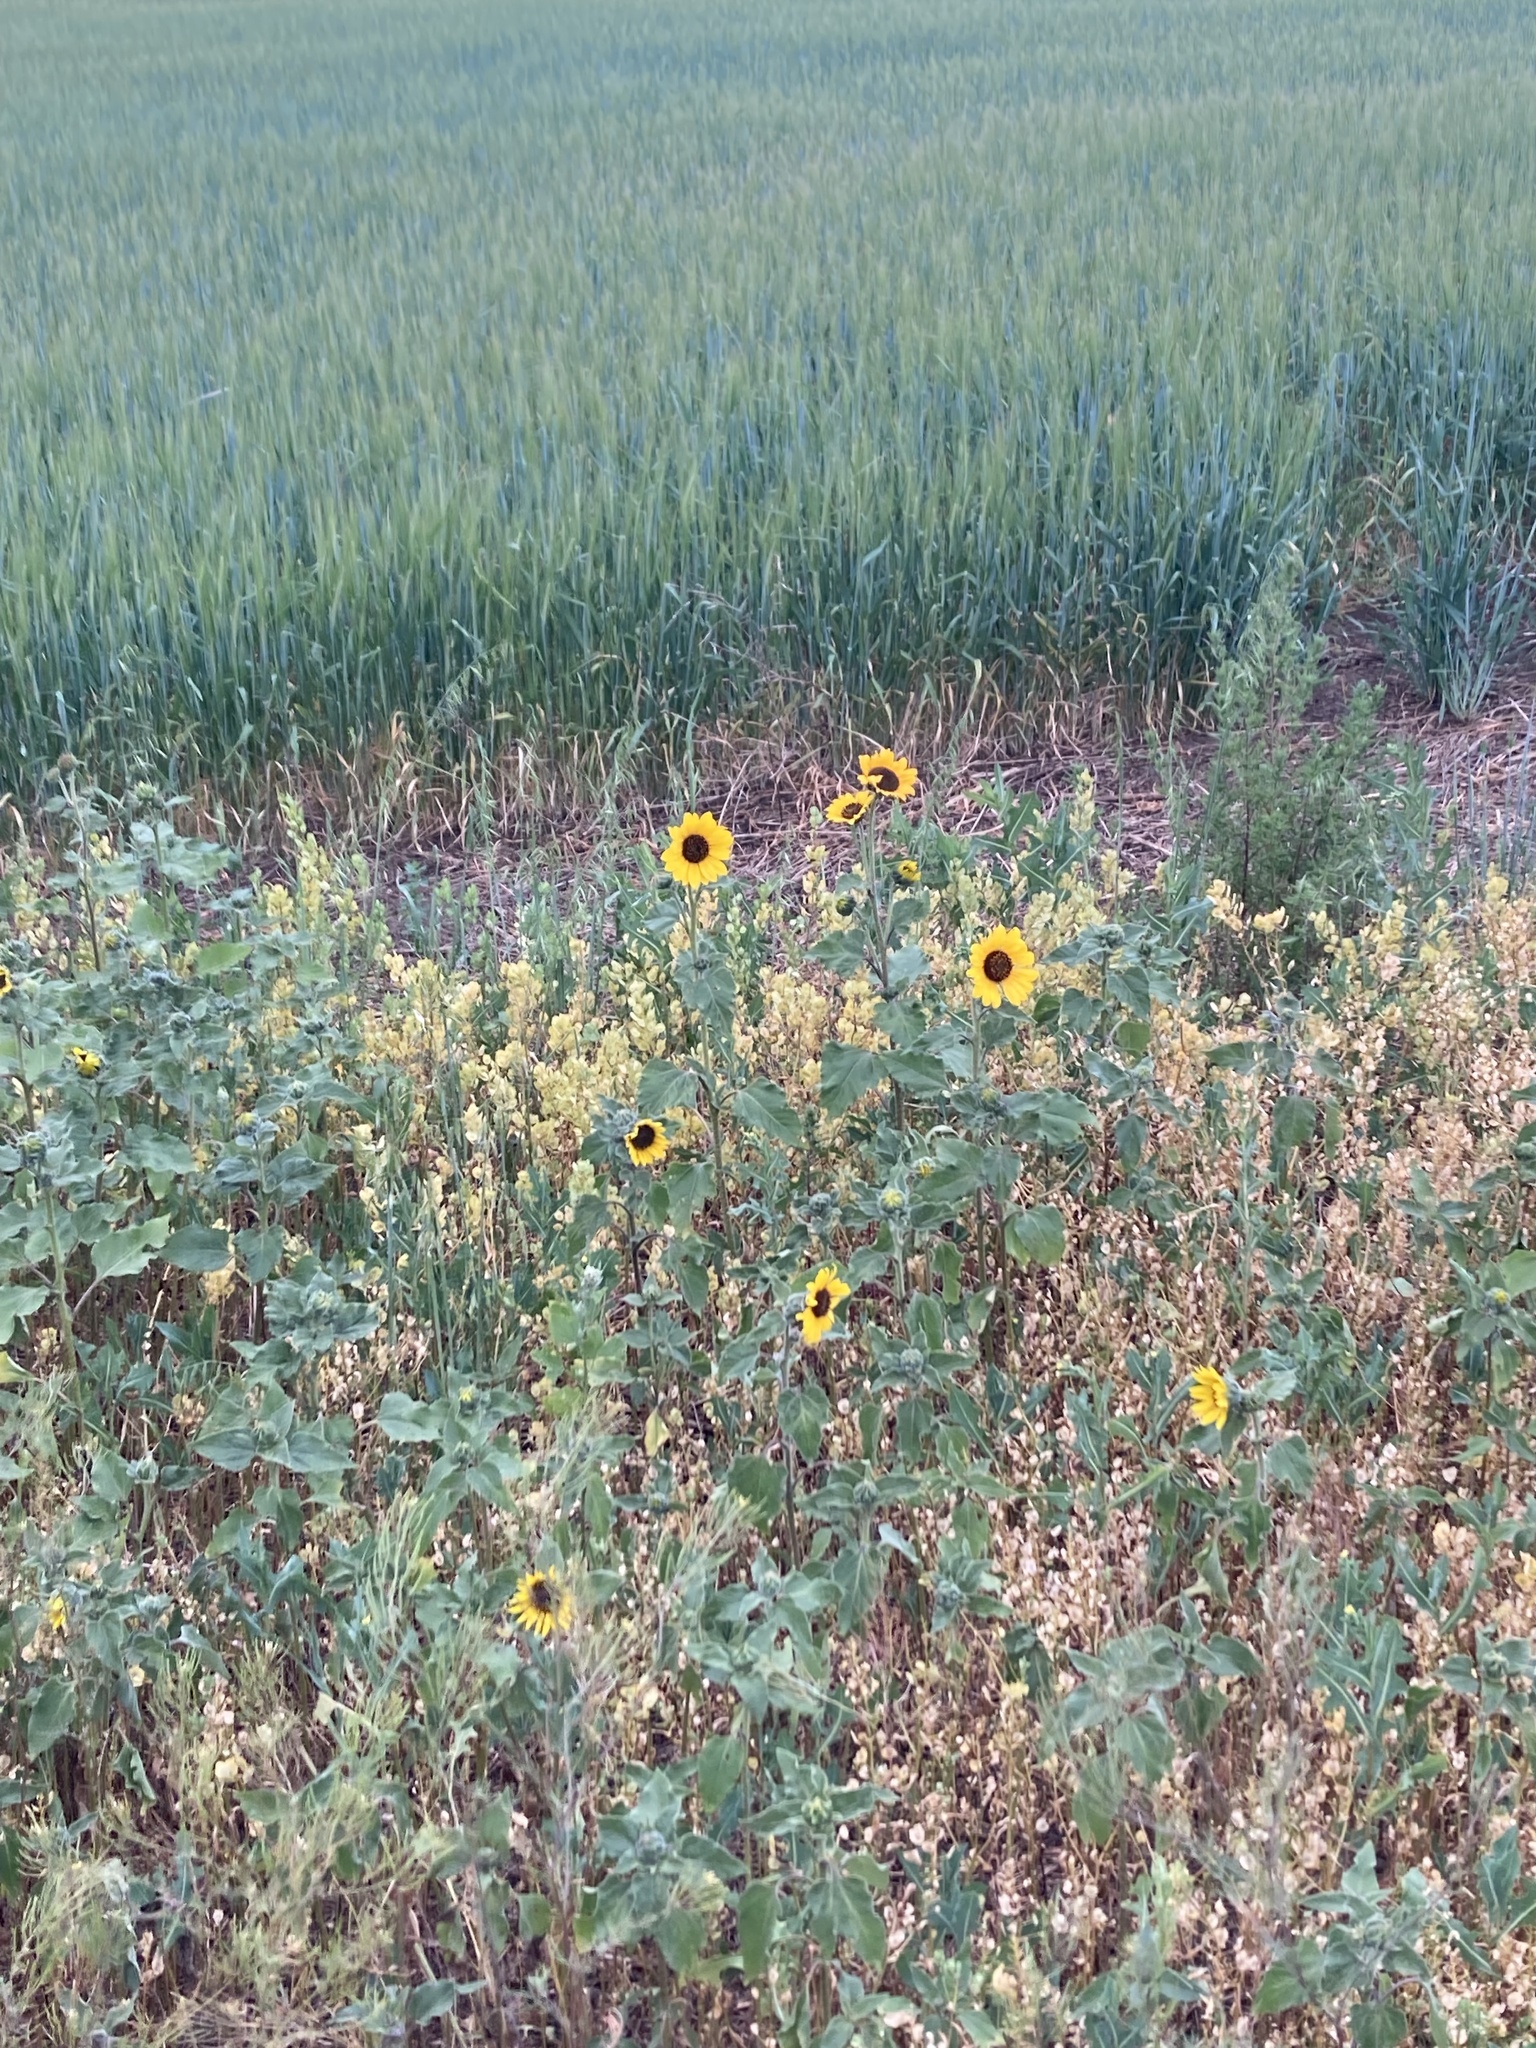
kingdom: Plantae
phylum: Tracheophyta
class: Magnoliopsida
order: Asterales
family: Asteraceae
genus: Helianthus
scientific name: Helianthus annuus
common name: Sunflower
